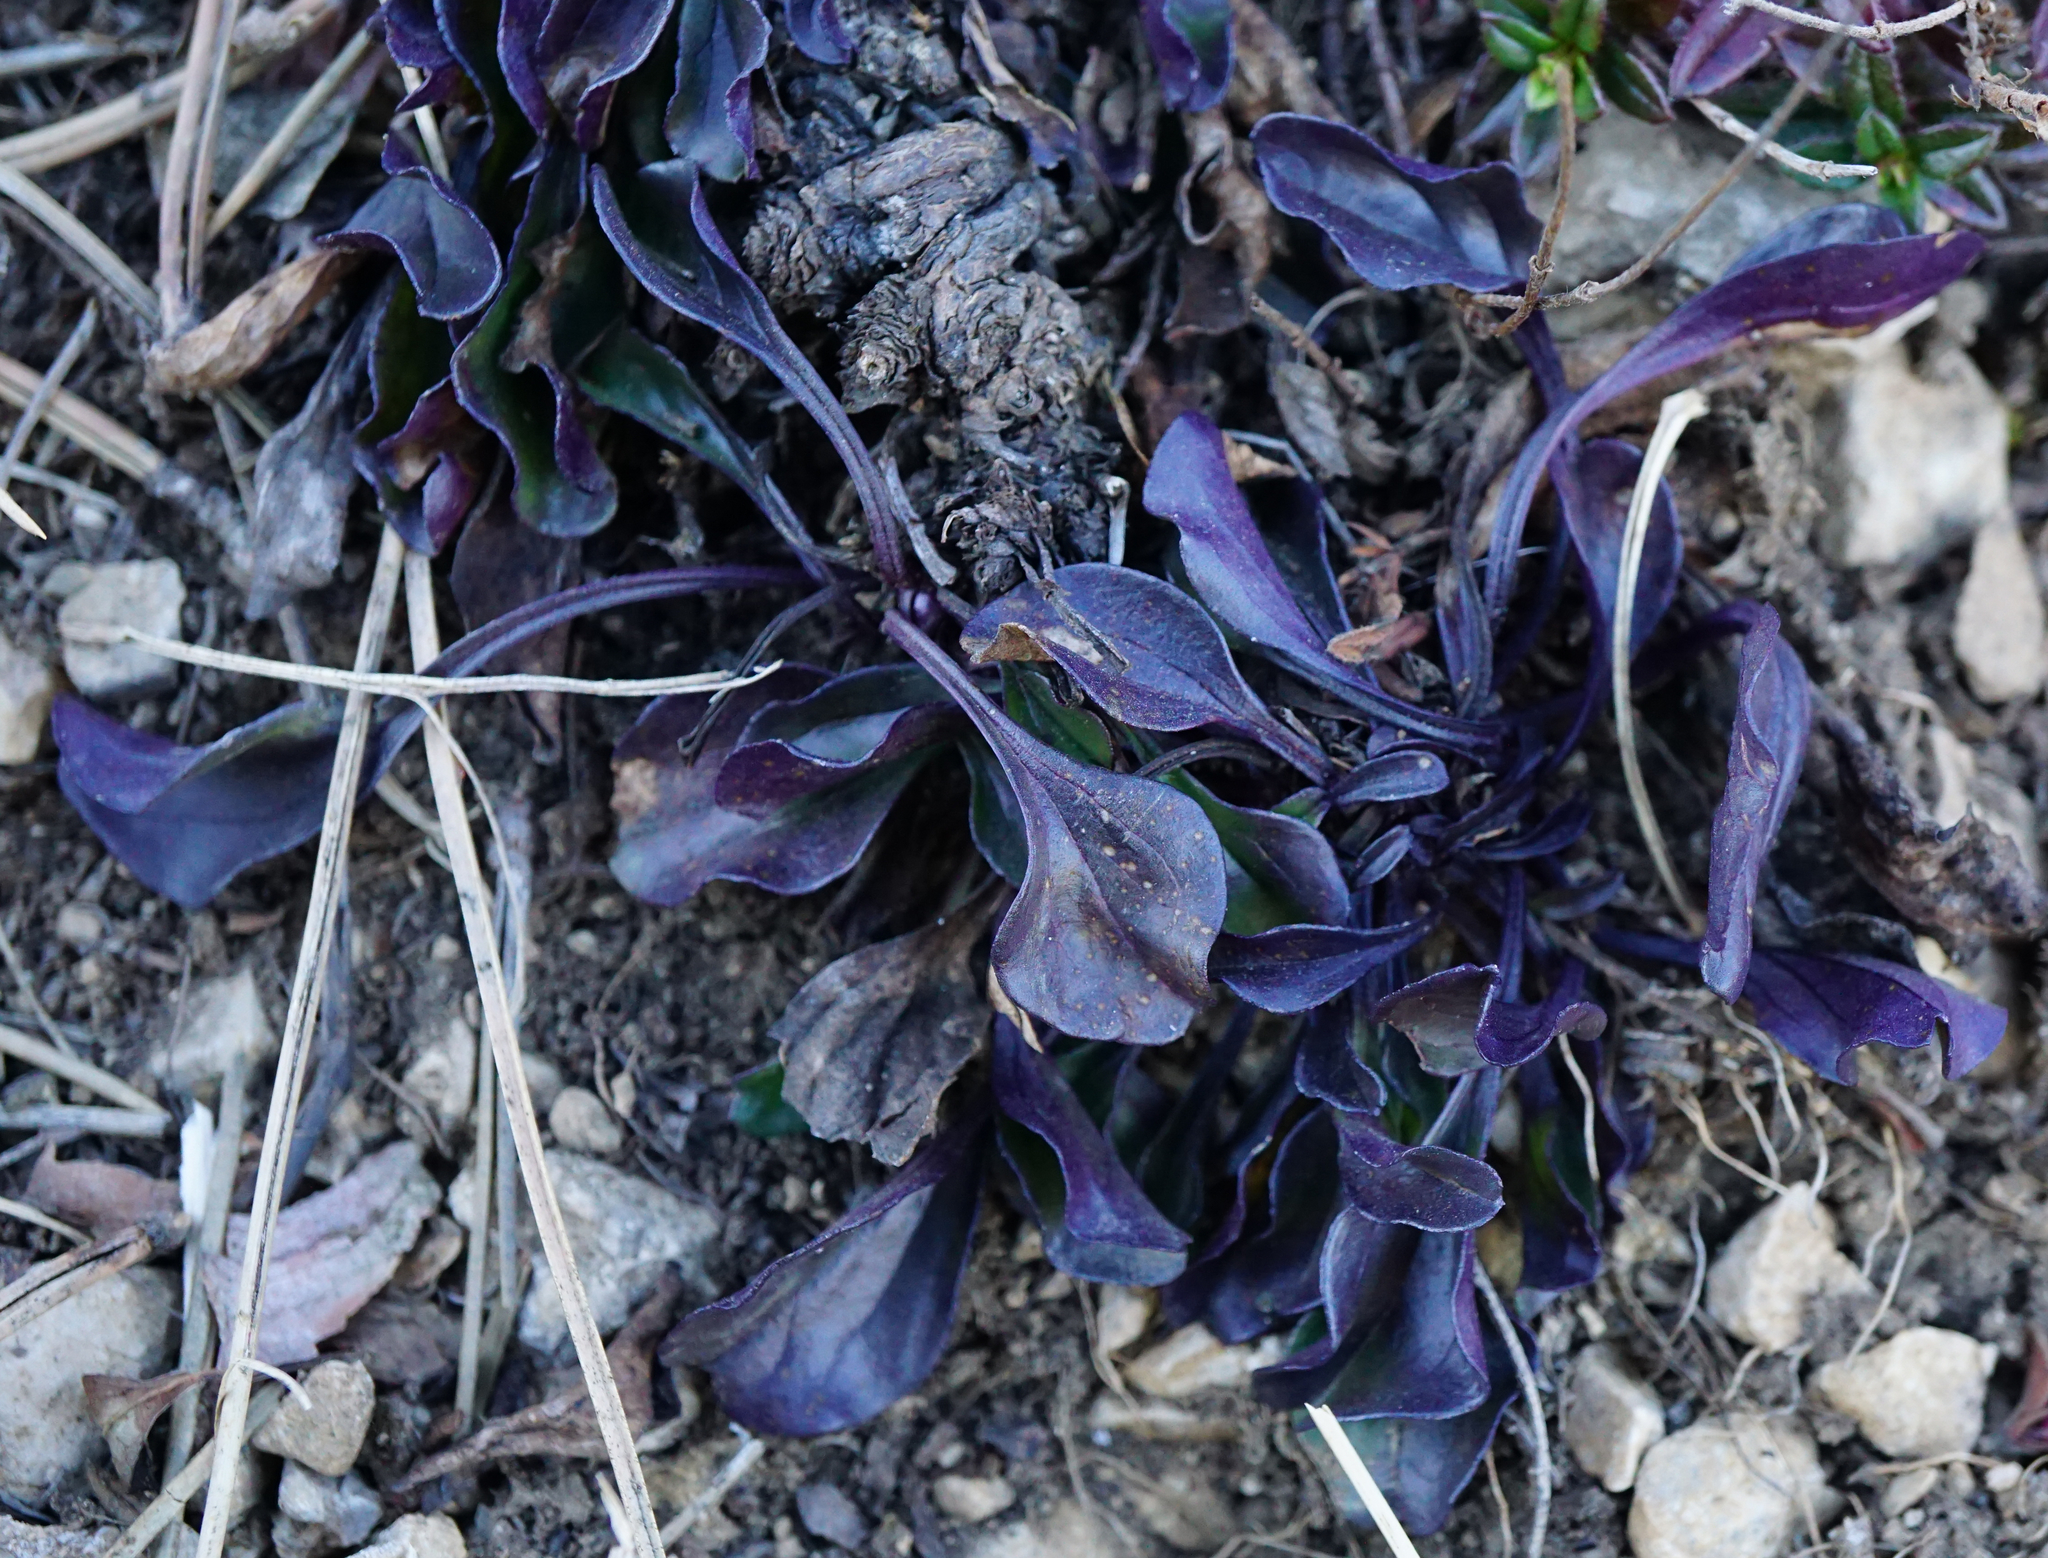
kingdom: Plantae
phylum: Tracheophyta
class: Magnoliopsida
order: Lamiales
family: Plantaginaceae
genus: Globularia
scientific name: Globularia bisnagarica
